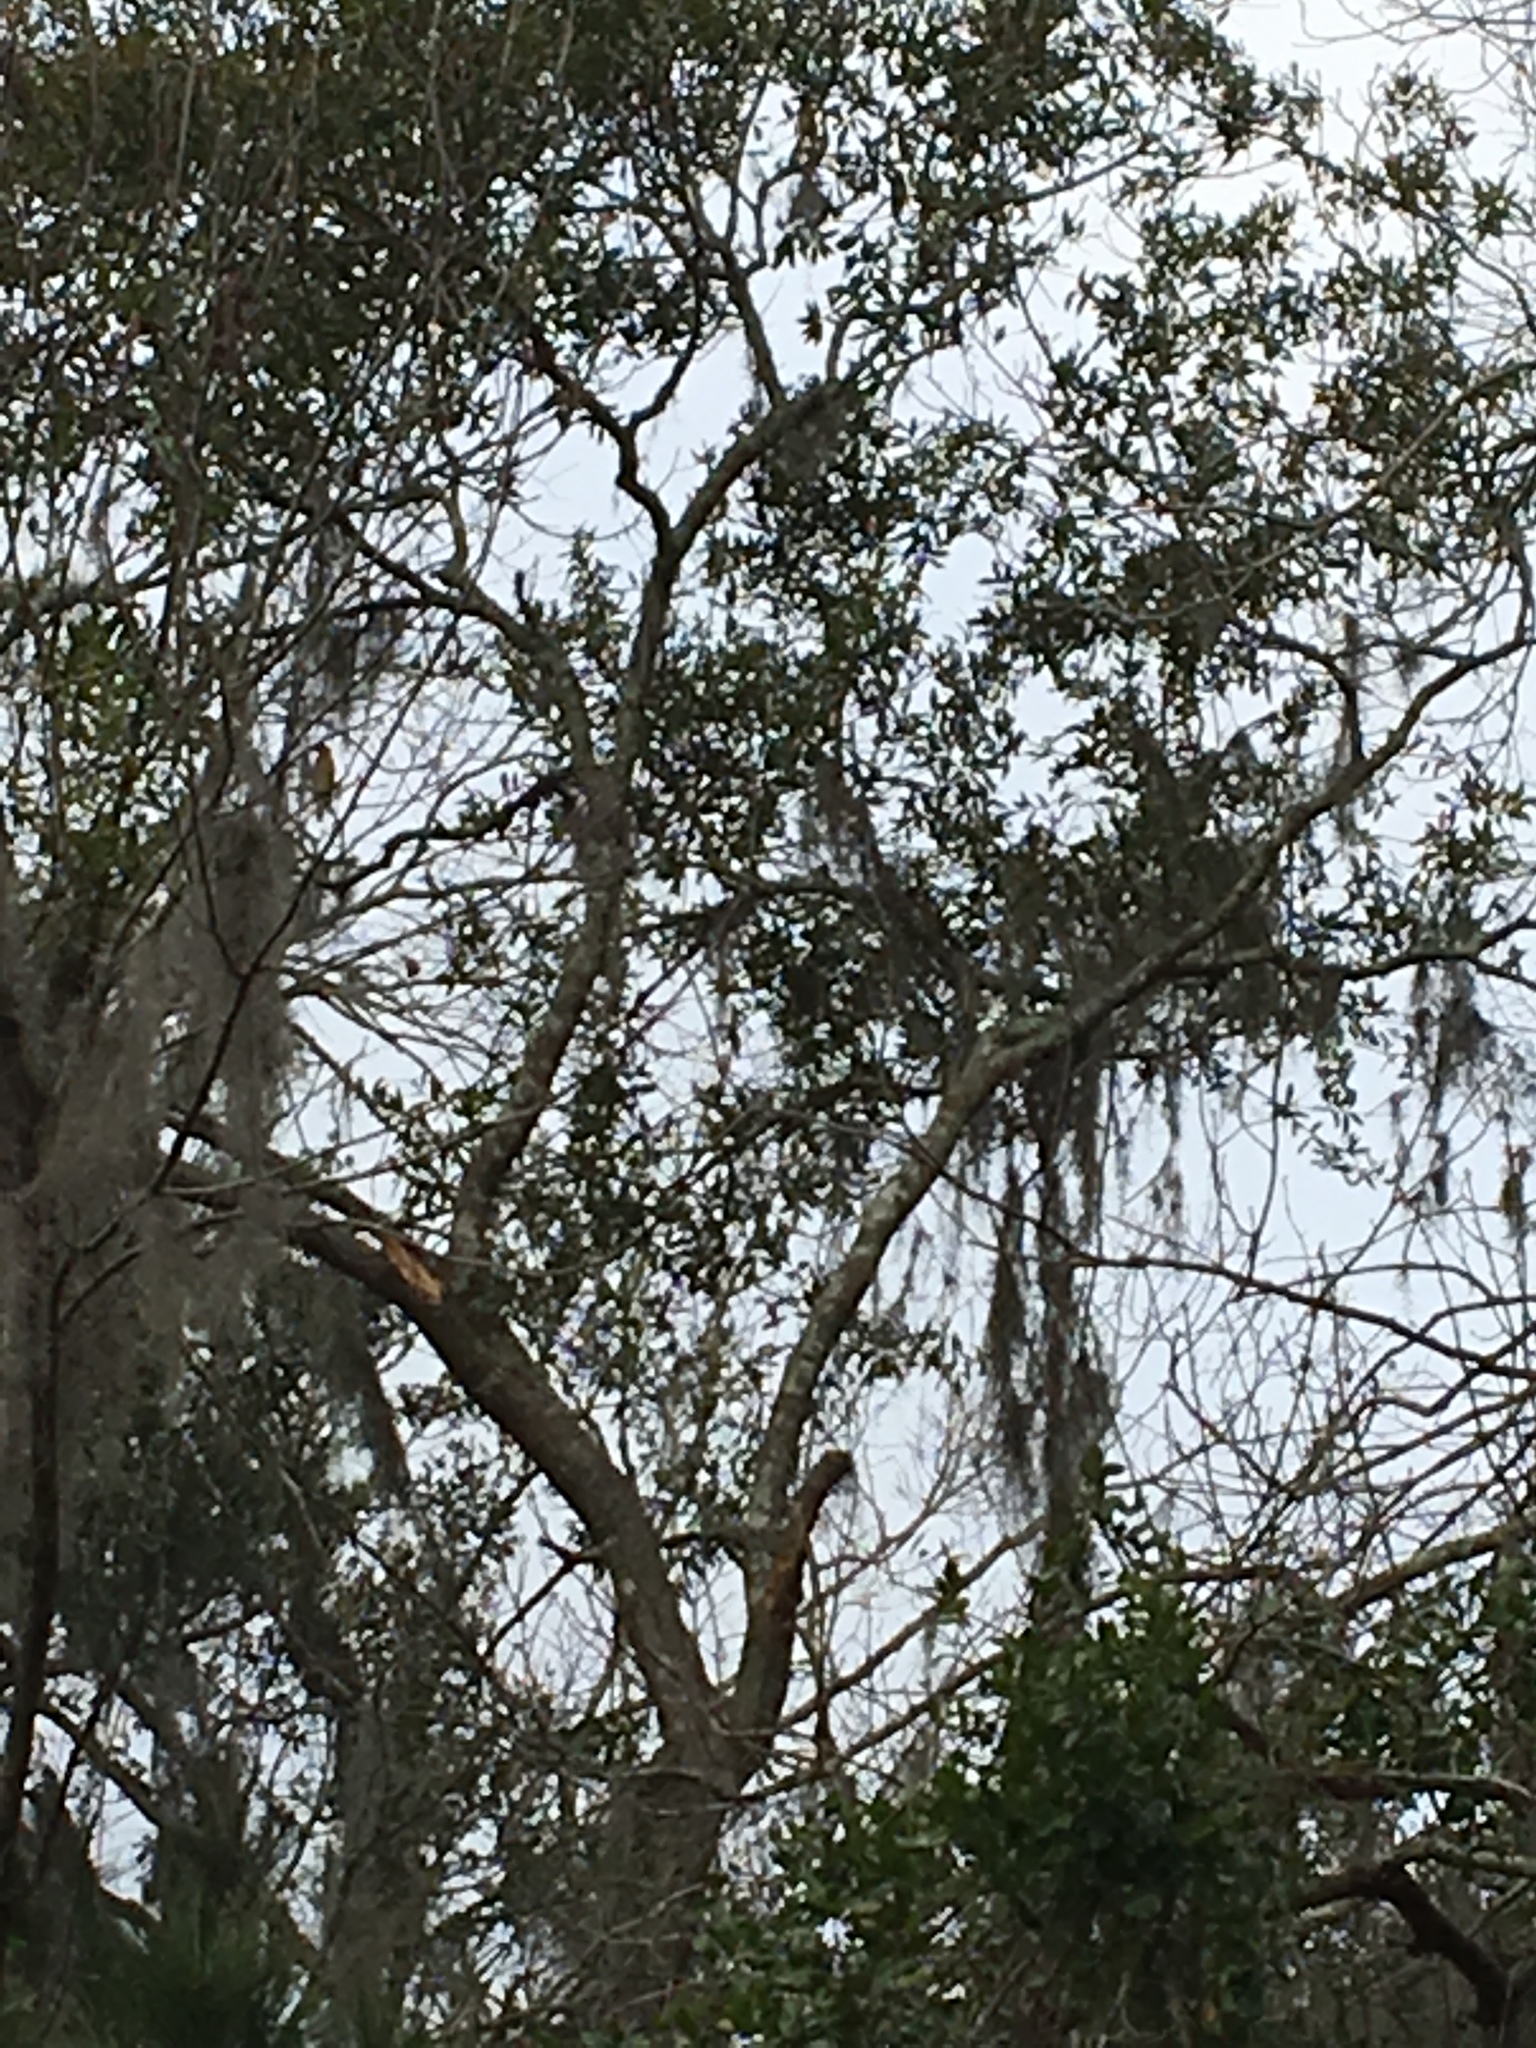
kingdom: Animalia
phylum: Chordata
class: Aves
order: Passeriformes
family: Bombycillidae
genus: Bombycilla
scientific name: Bombycilla cedrorum
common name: Cedar waxwing
